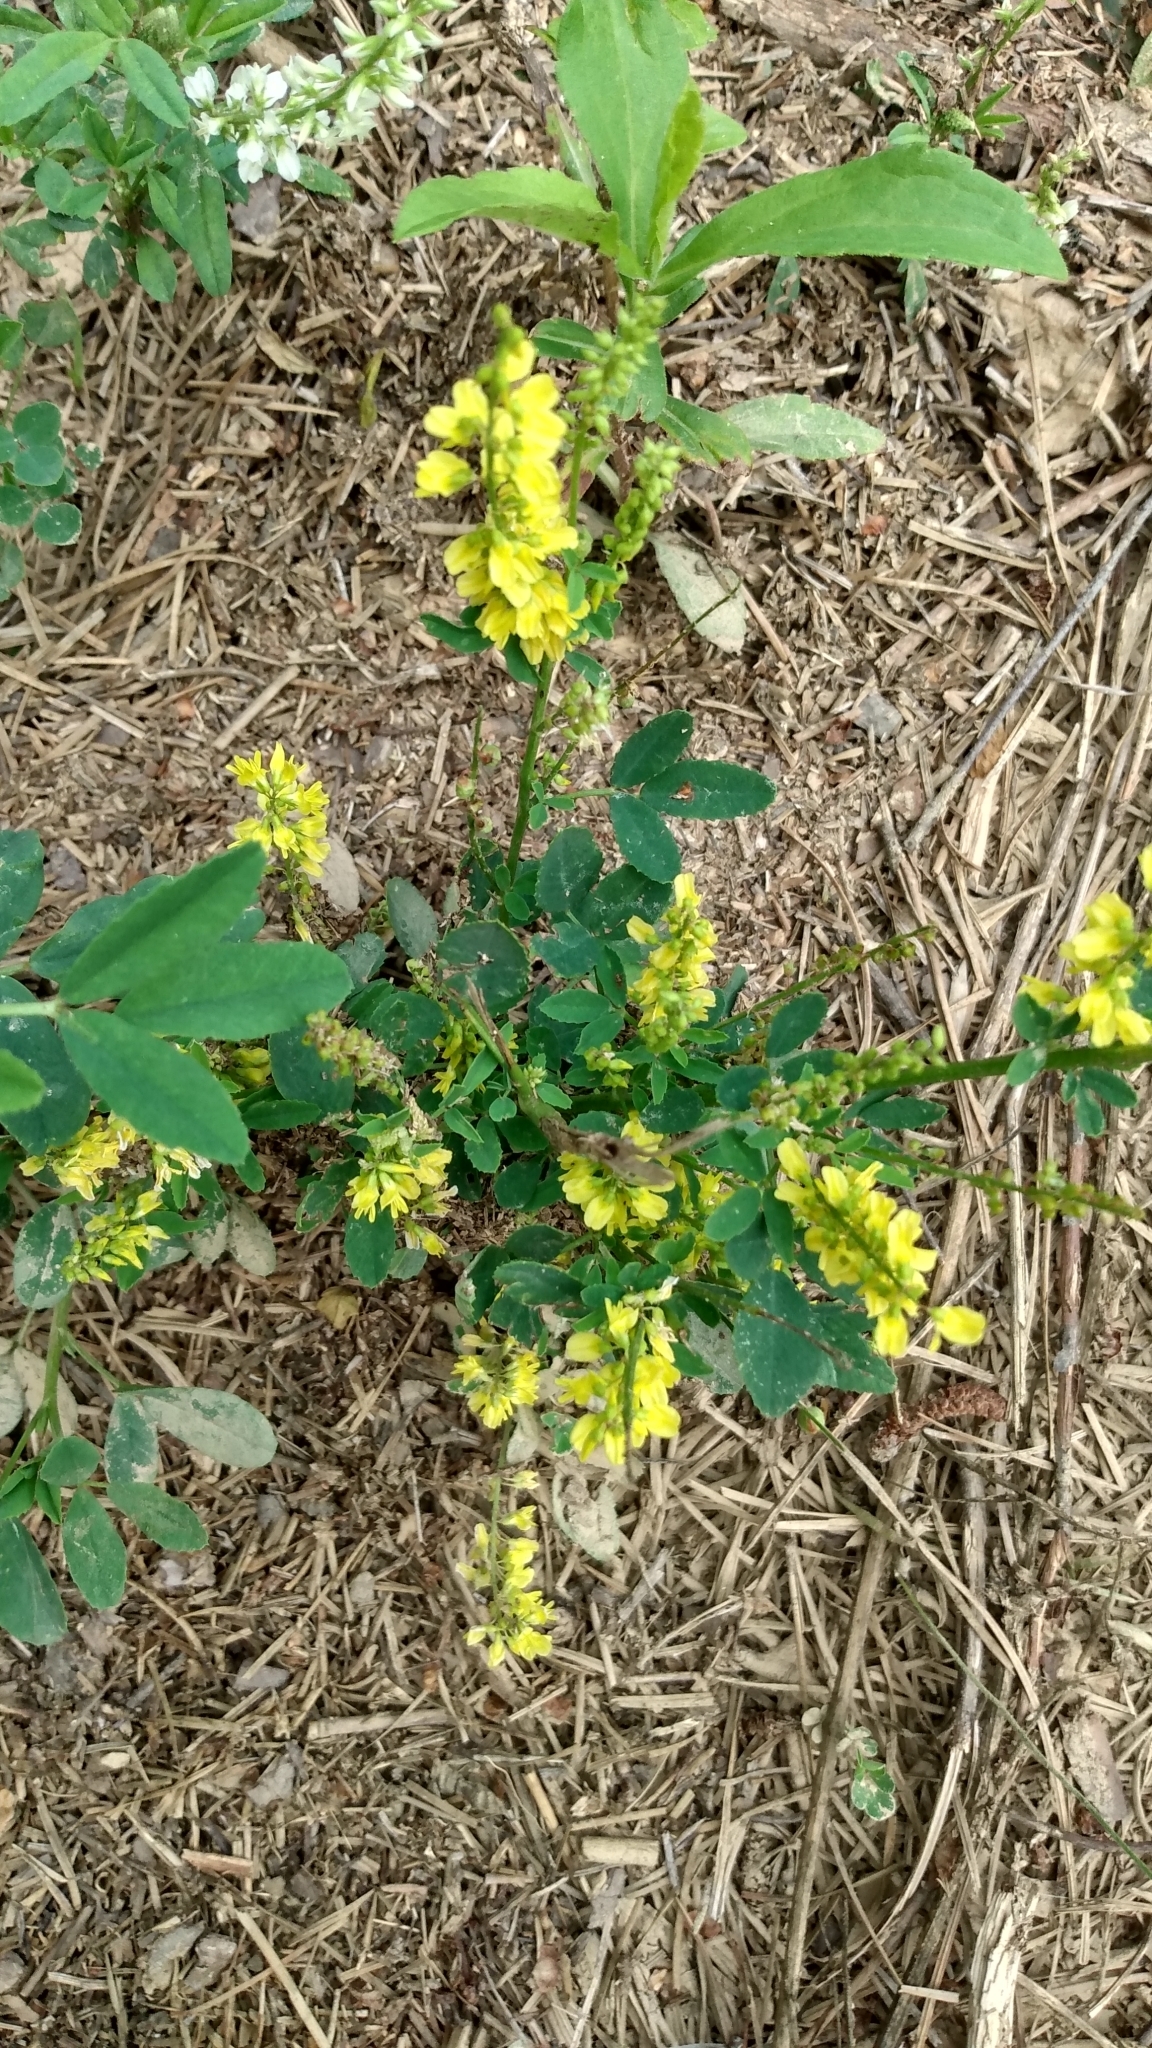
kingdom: Plantae
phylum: Tracheophyta
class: Magnoliopsida
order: Fabales
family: Fabaceae
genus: Melilotus
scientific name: Melilotus officinalis
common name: Sweetclover
